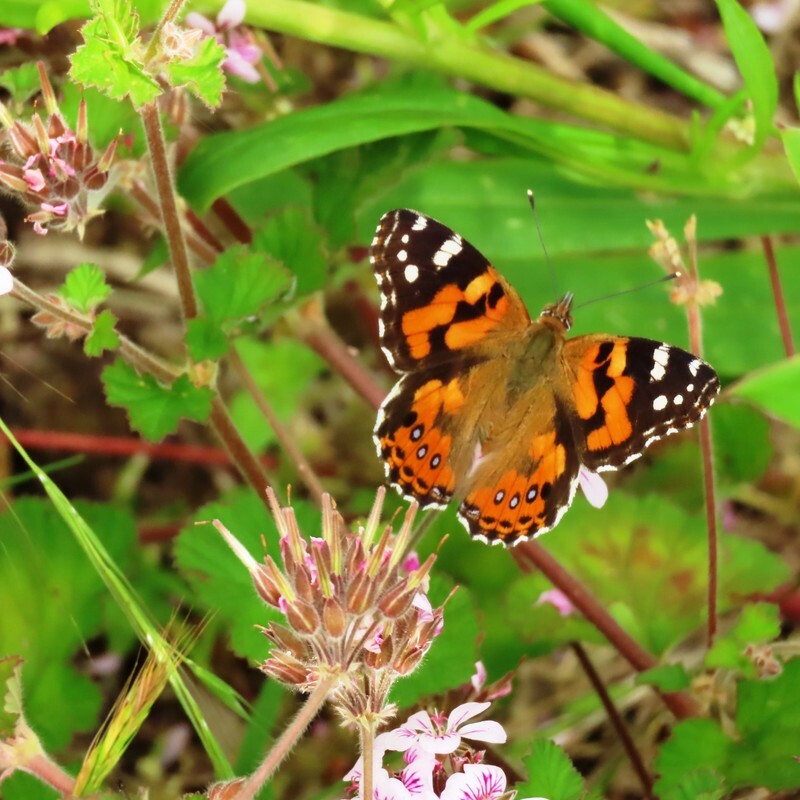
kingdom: Animalia
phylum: Arthropoda
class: Insecta
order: Lepidoptera
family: Nymphalidae
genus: Vanessa
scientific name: Vanessa kershawi
